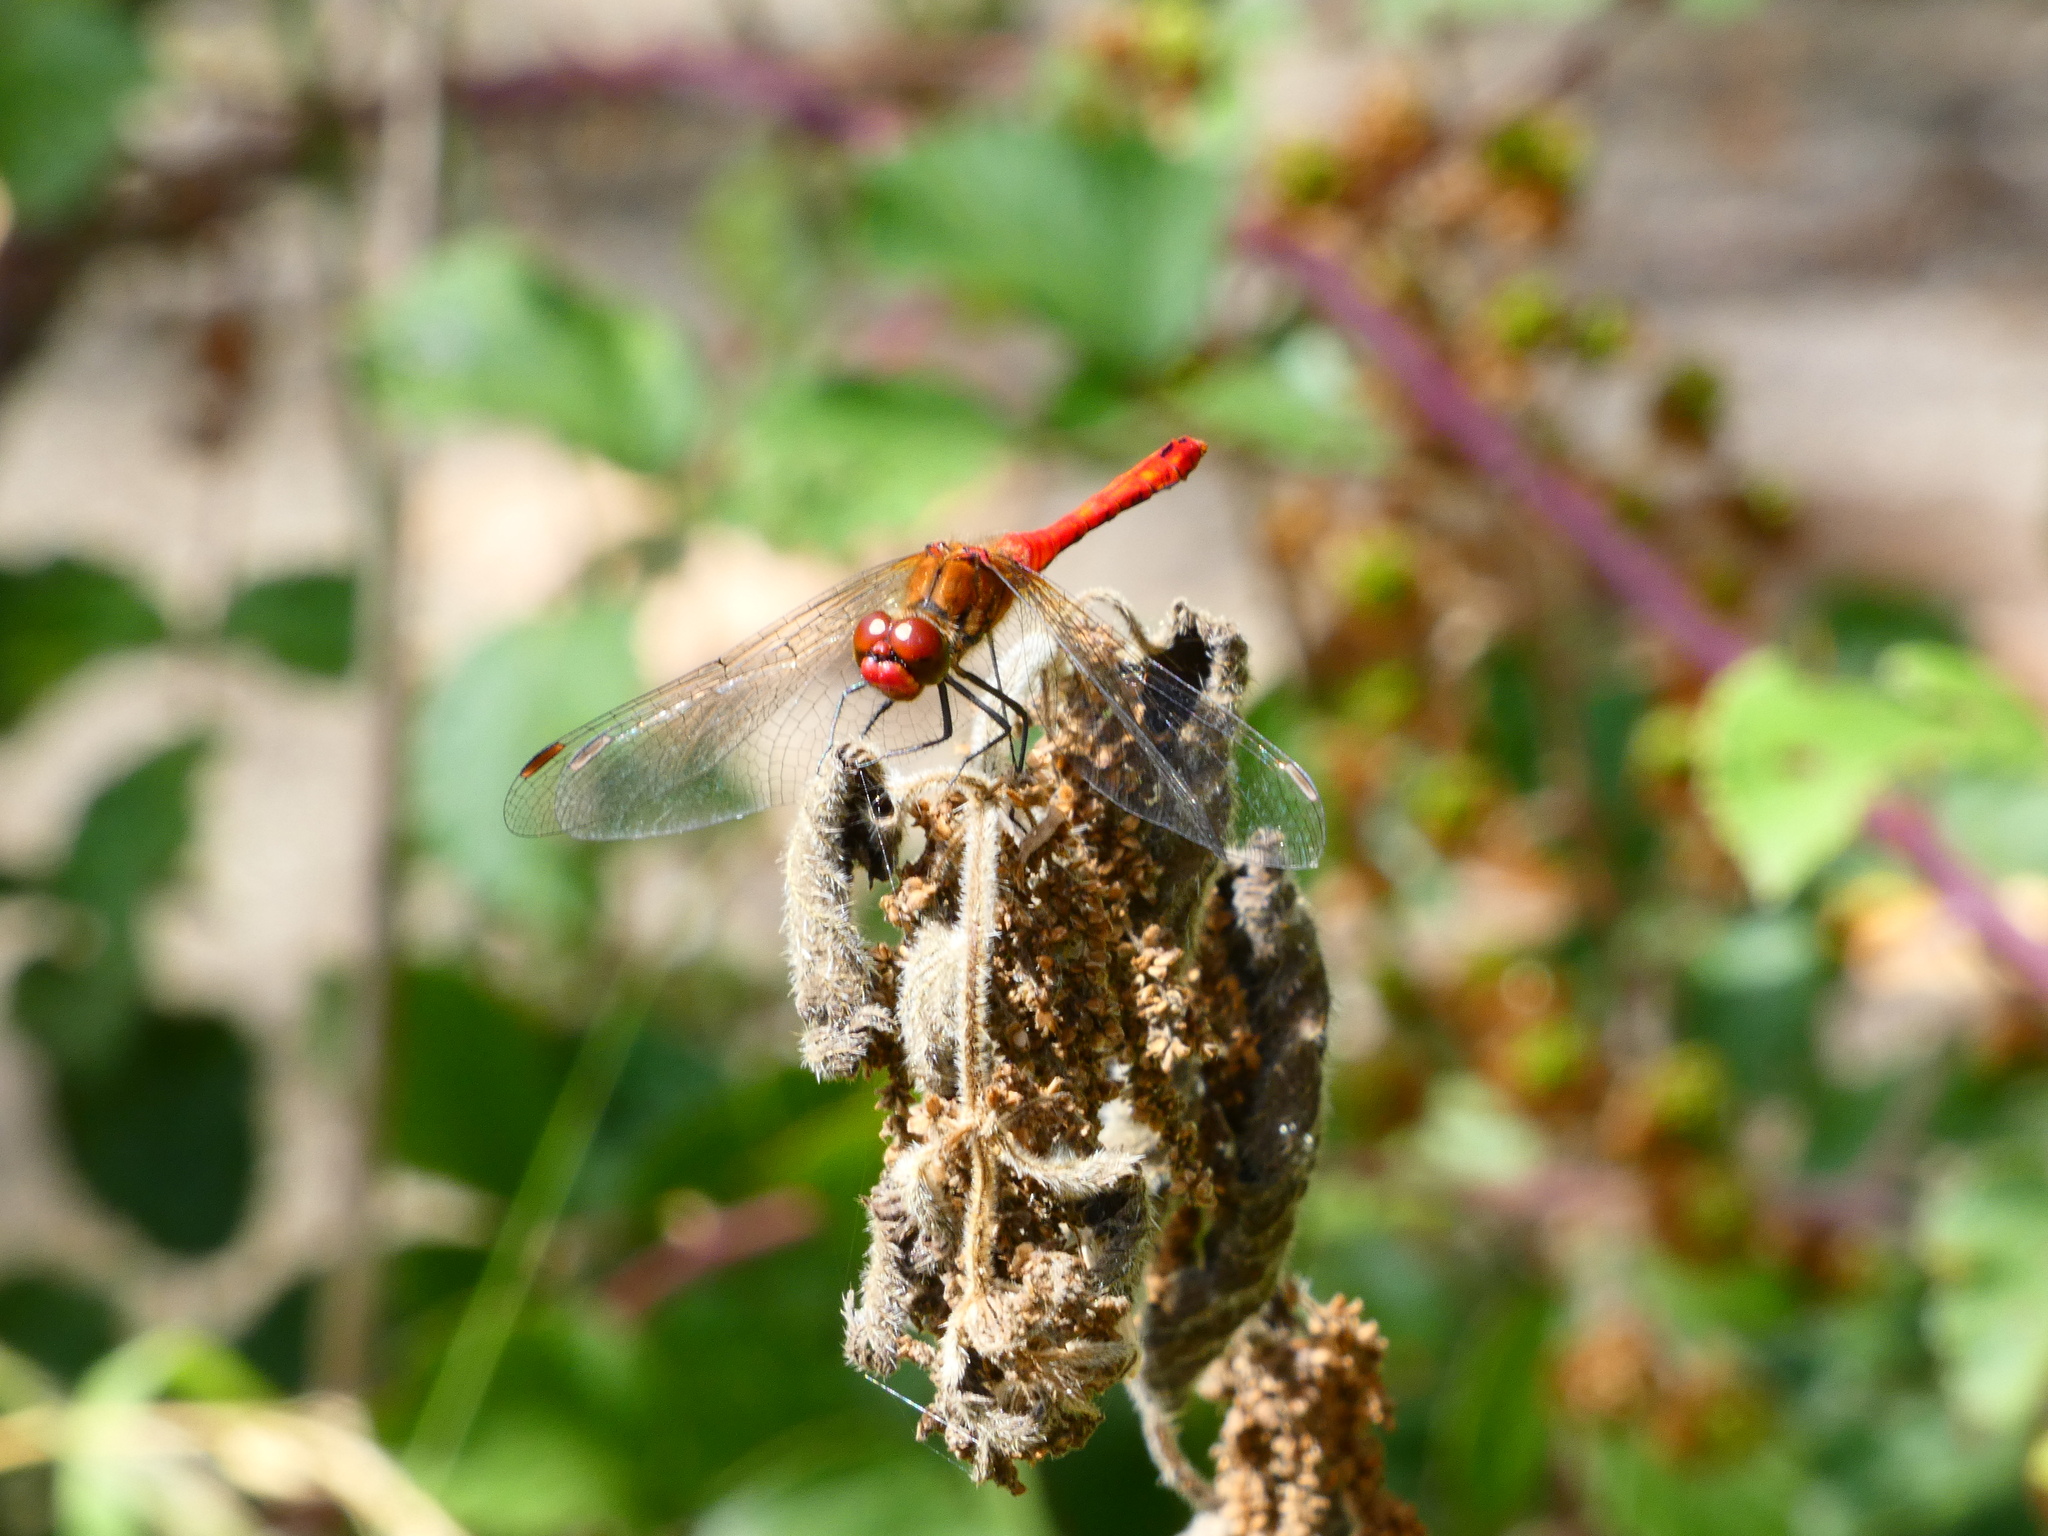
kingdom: Animalia
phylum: Arthropoda
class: Insecta
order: Odonata
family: Libellulidae
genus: Sympetrum
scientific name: Sympetrum sanguineum
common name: Ruddy darter
